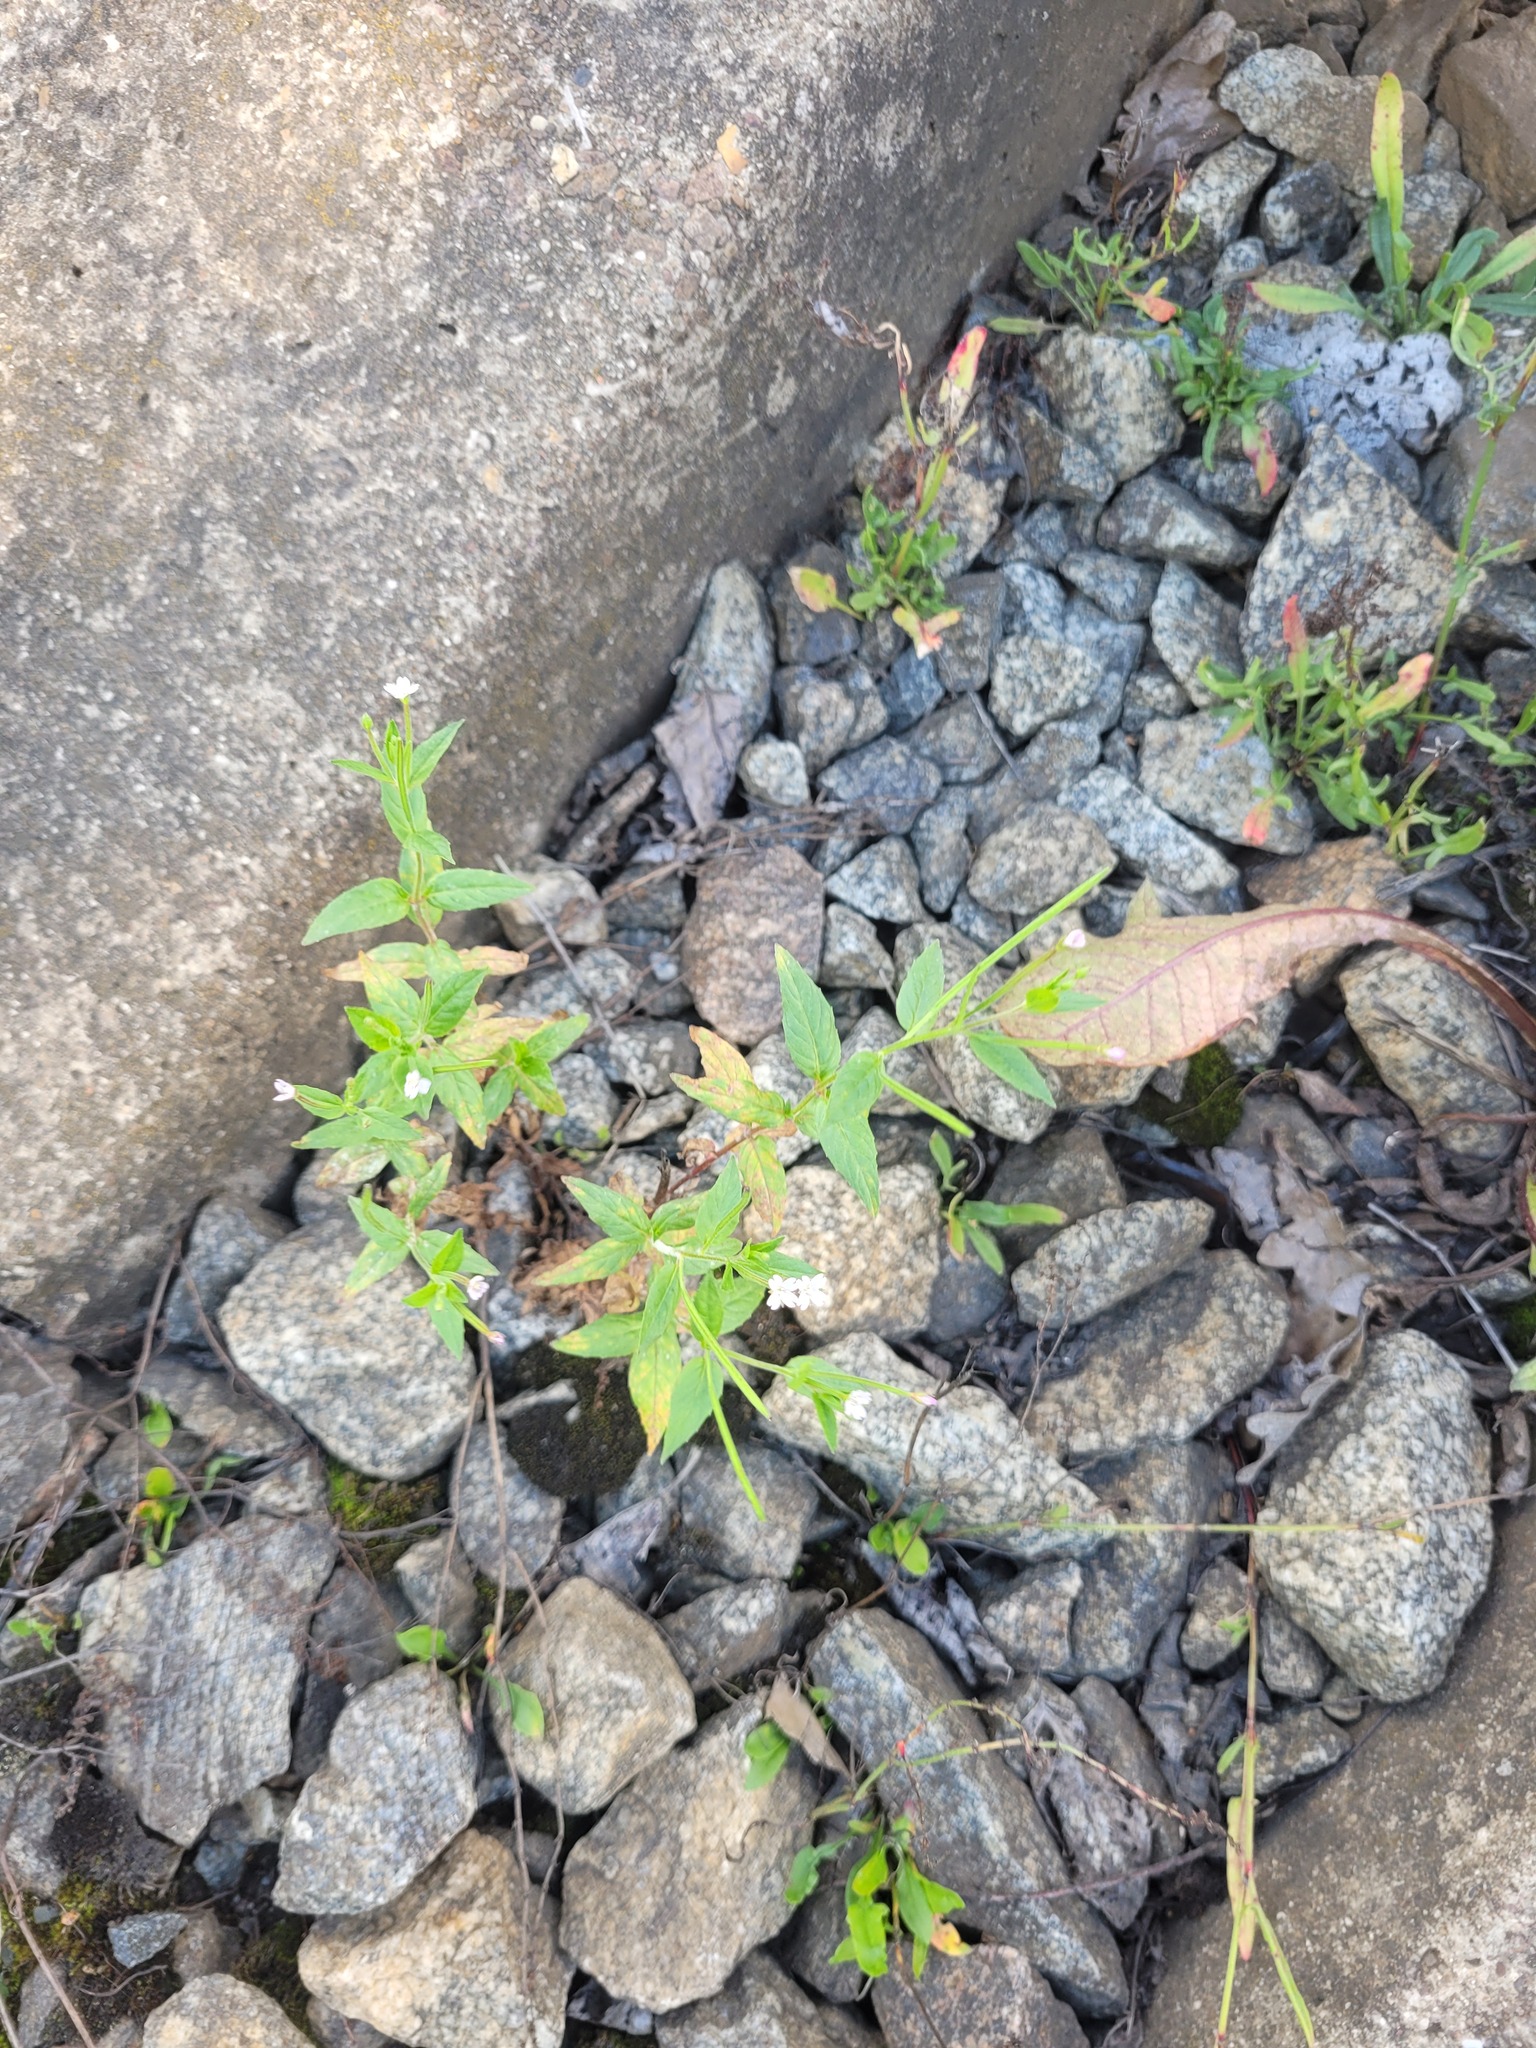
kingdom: Plantae
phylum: Tracheophyta
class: Magnoliopsida
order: Myrtales
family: Onagraceae
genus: Epilobium
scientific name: Epilobium ciliatum
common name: American willowherb
